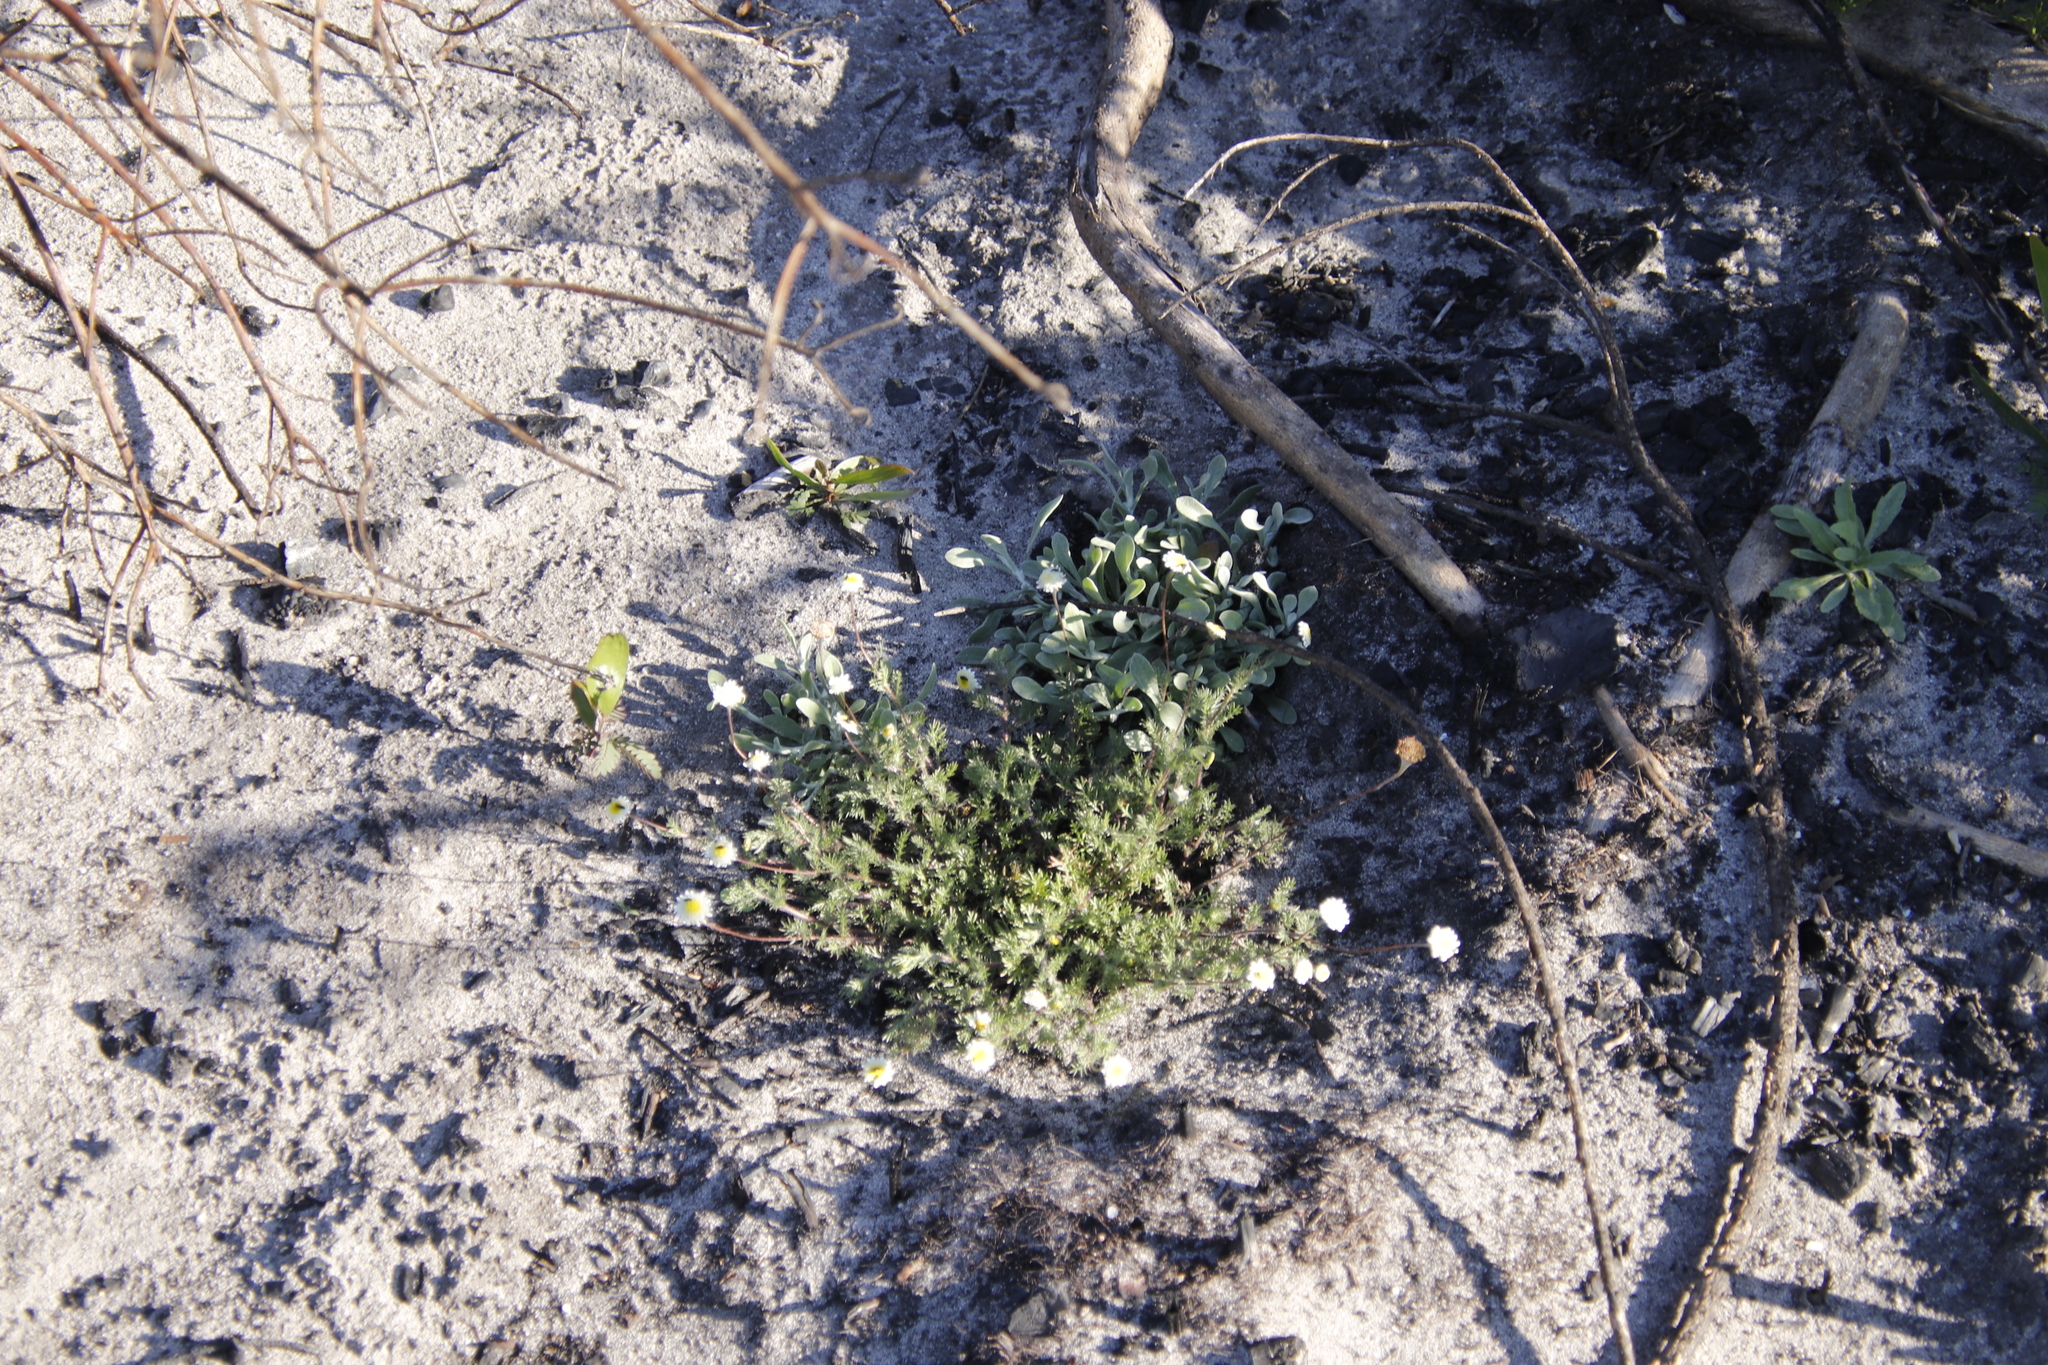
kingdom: Plantae
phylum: Tracheophyta
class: Magnoliopsida
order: Asterales
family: Asteraceae
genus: Cotula
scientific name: Cotula turbinata
